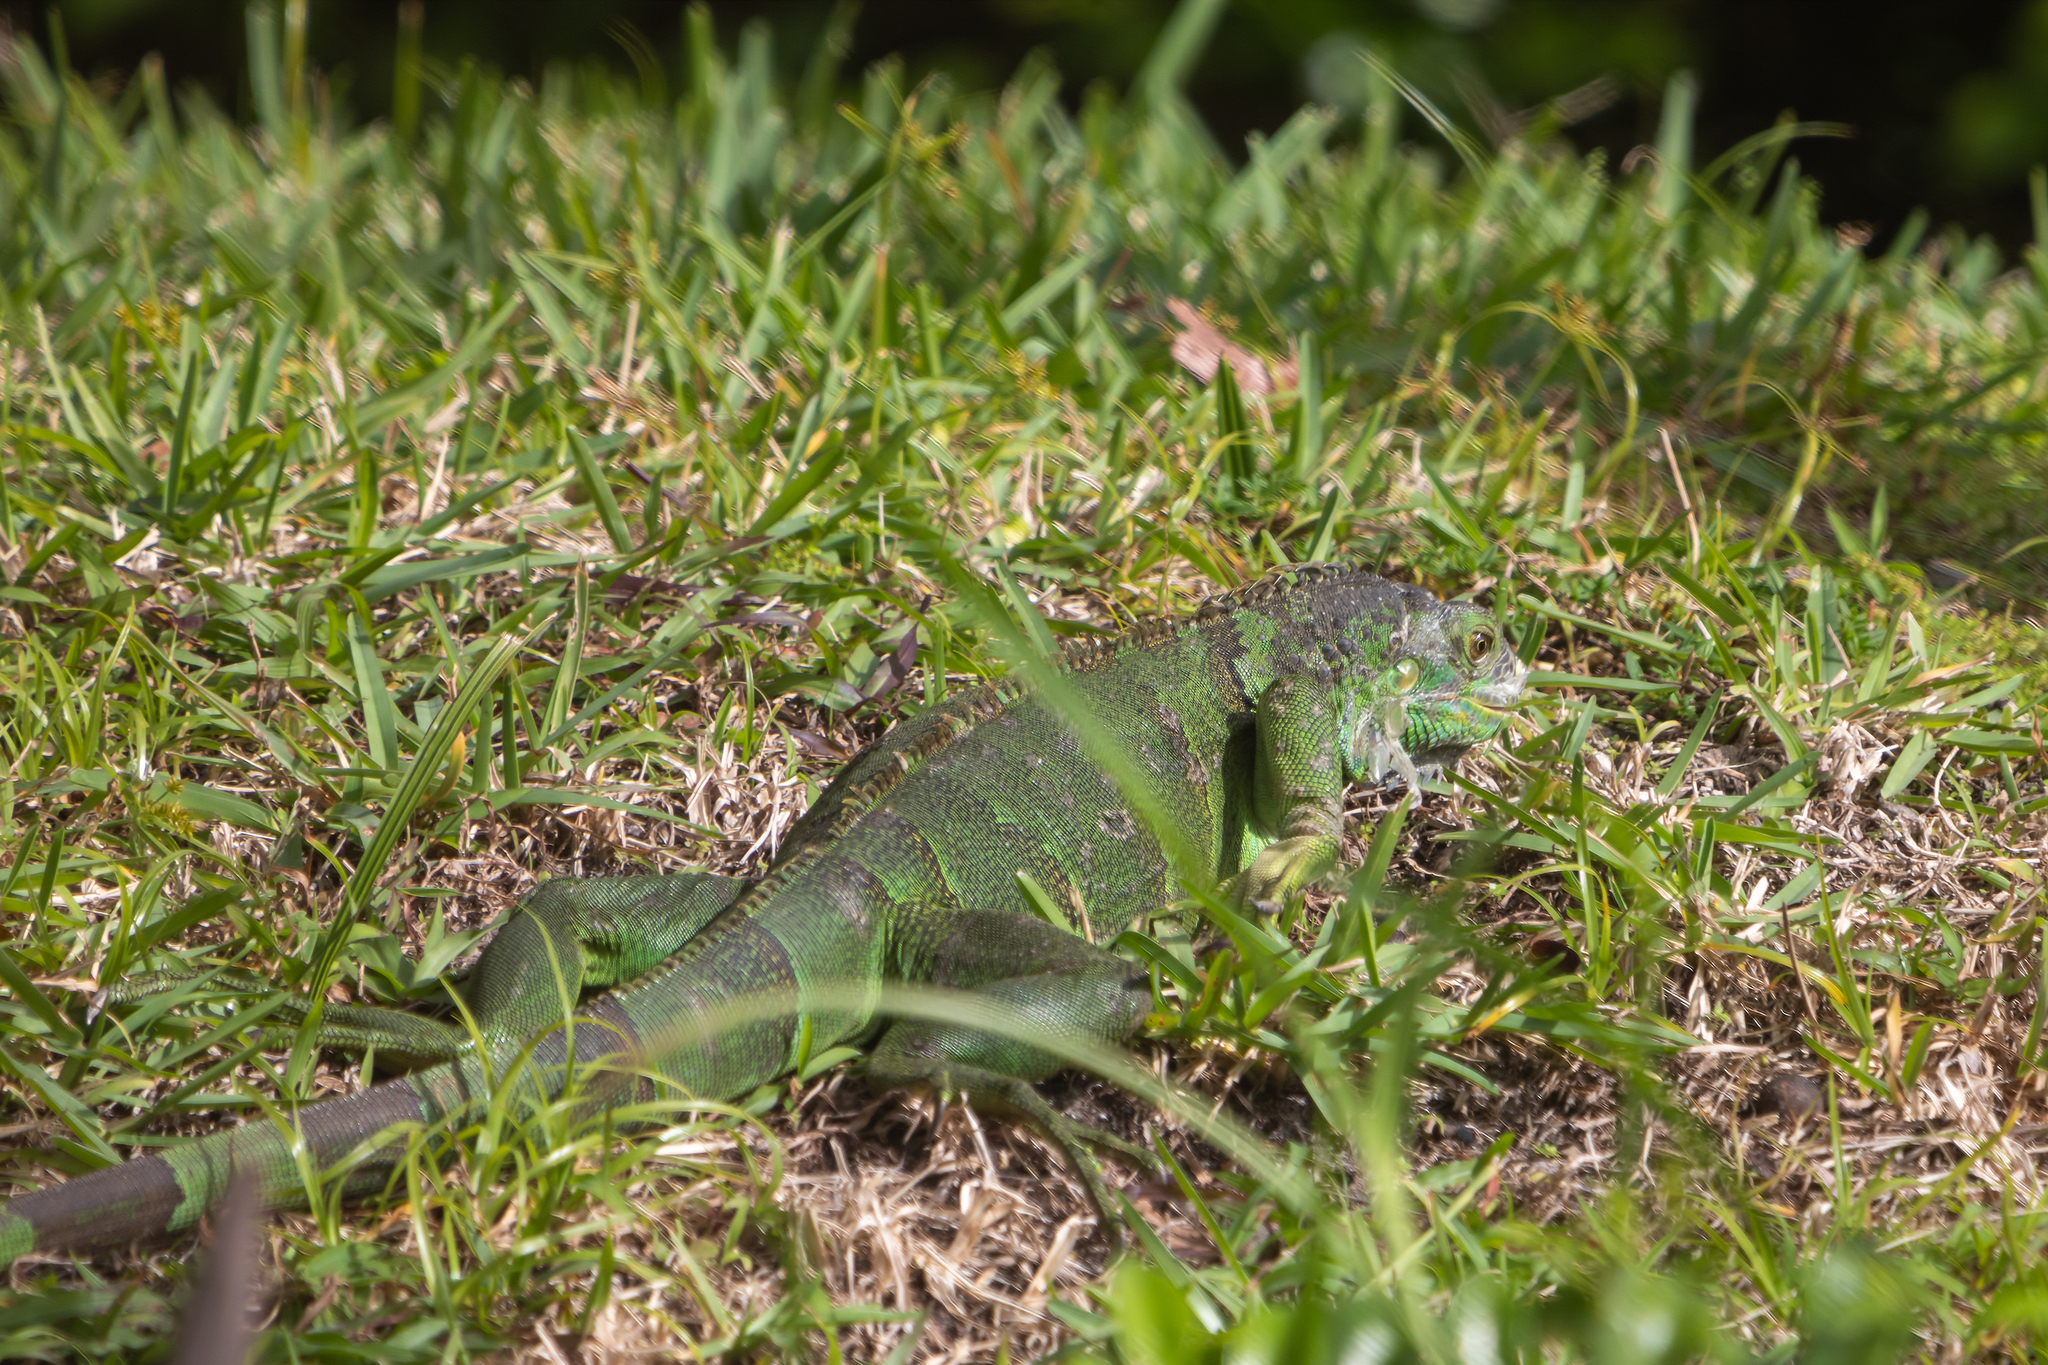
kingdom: Animalia
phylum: Chordata
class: Squamata
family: Iguanidae
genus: Iguana
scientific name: Iguana iguana
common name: Green iguana
